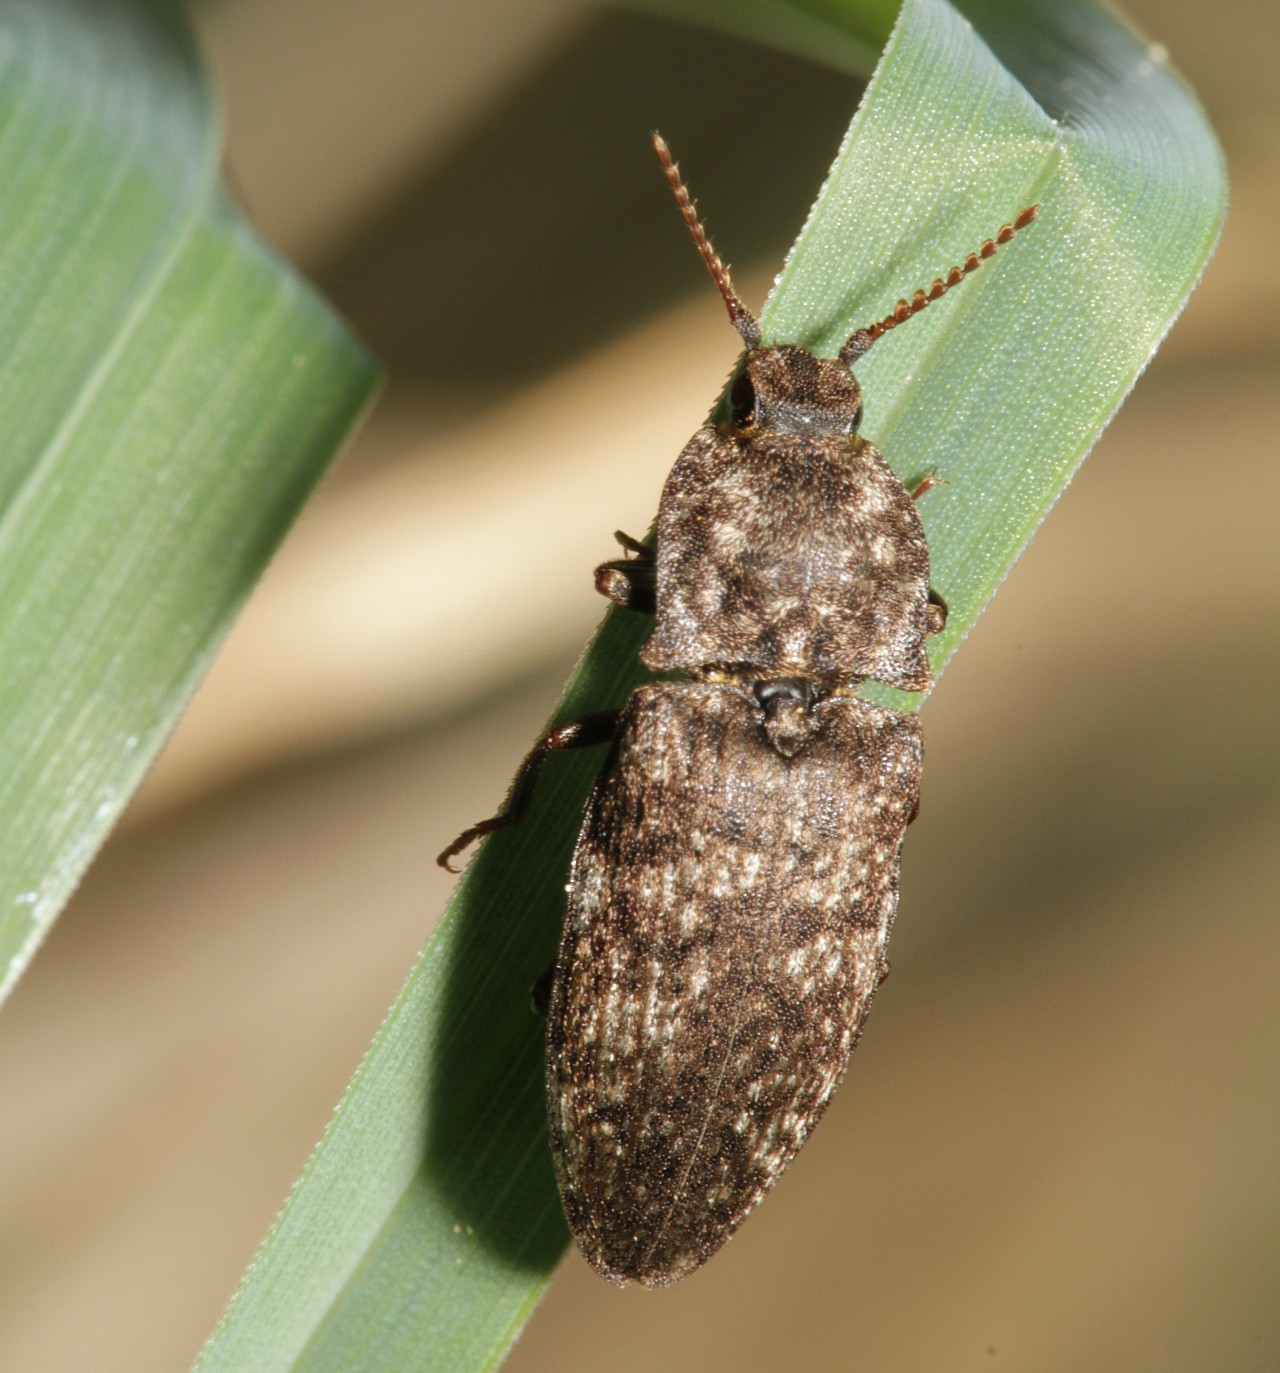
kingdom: Animalia
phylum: Arthropoda
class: Insecta
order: Coleoptera
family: Elateridae
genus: Agrypnus
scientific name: Agrypnus murinus
